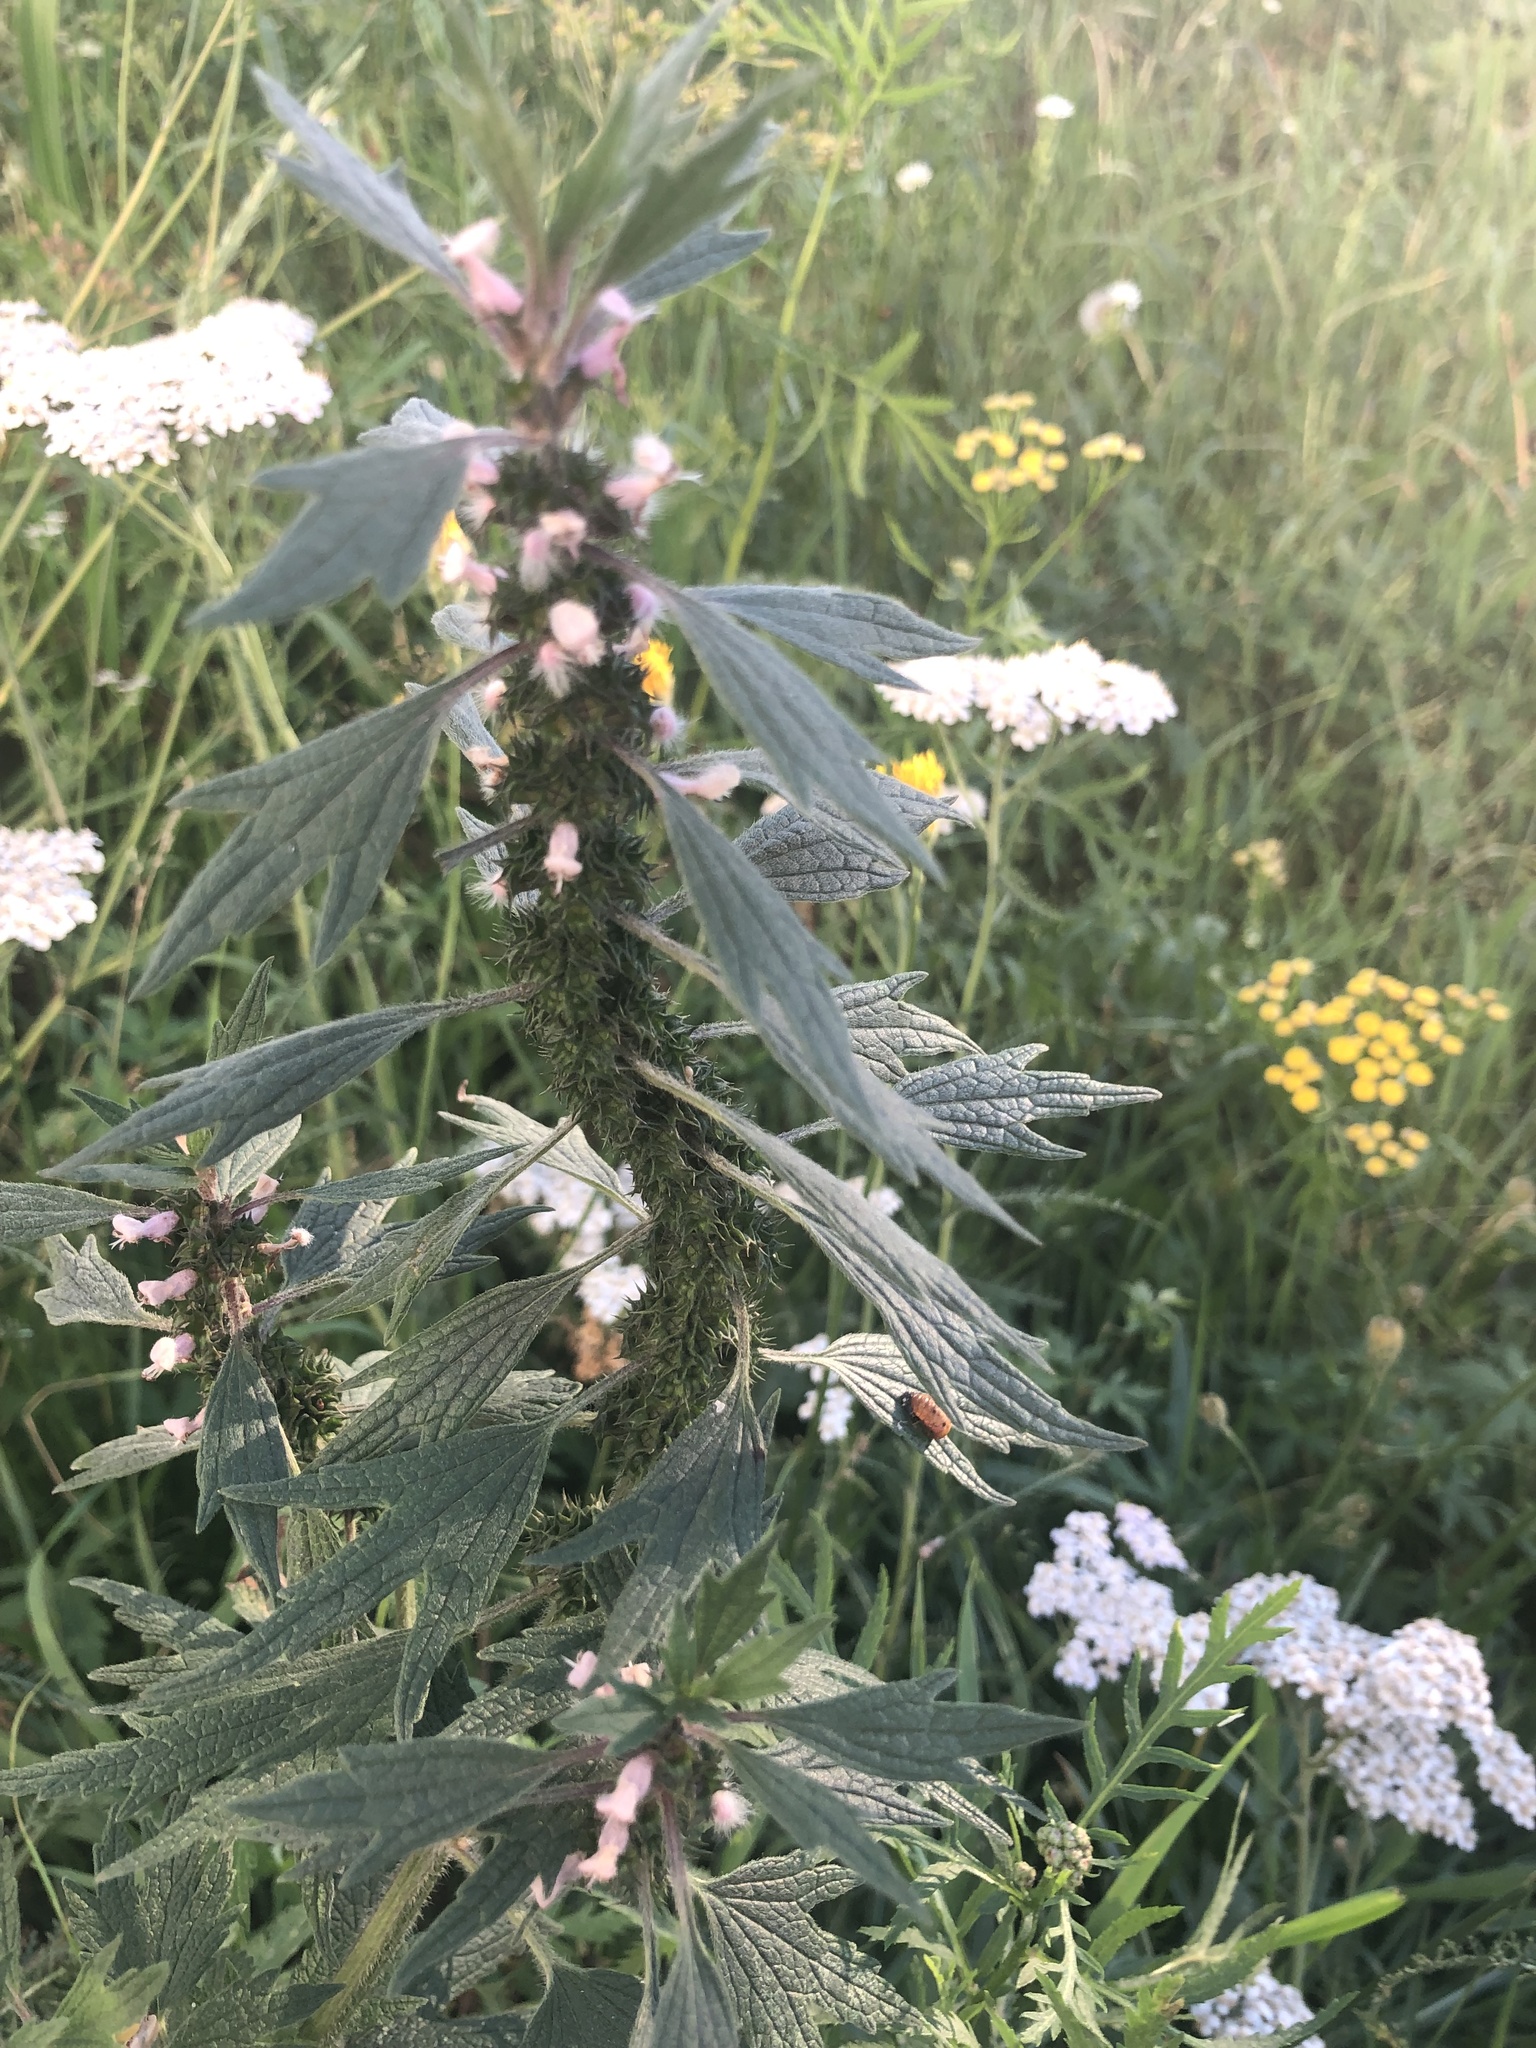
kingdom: Plantae
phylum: Tracheophyta
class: Magnoliopsida
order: Lamiales
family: Lamiaceae
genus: Leonurus
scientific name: Leonurus quinquelobatus
